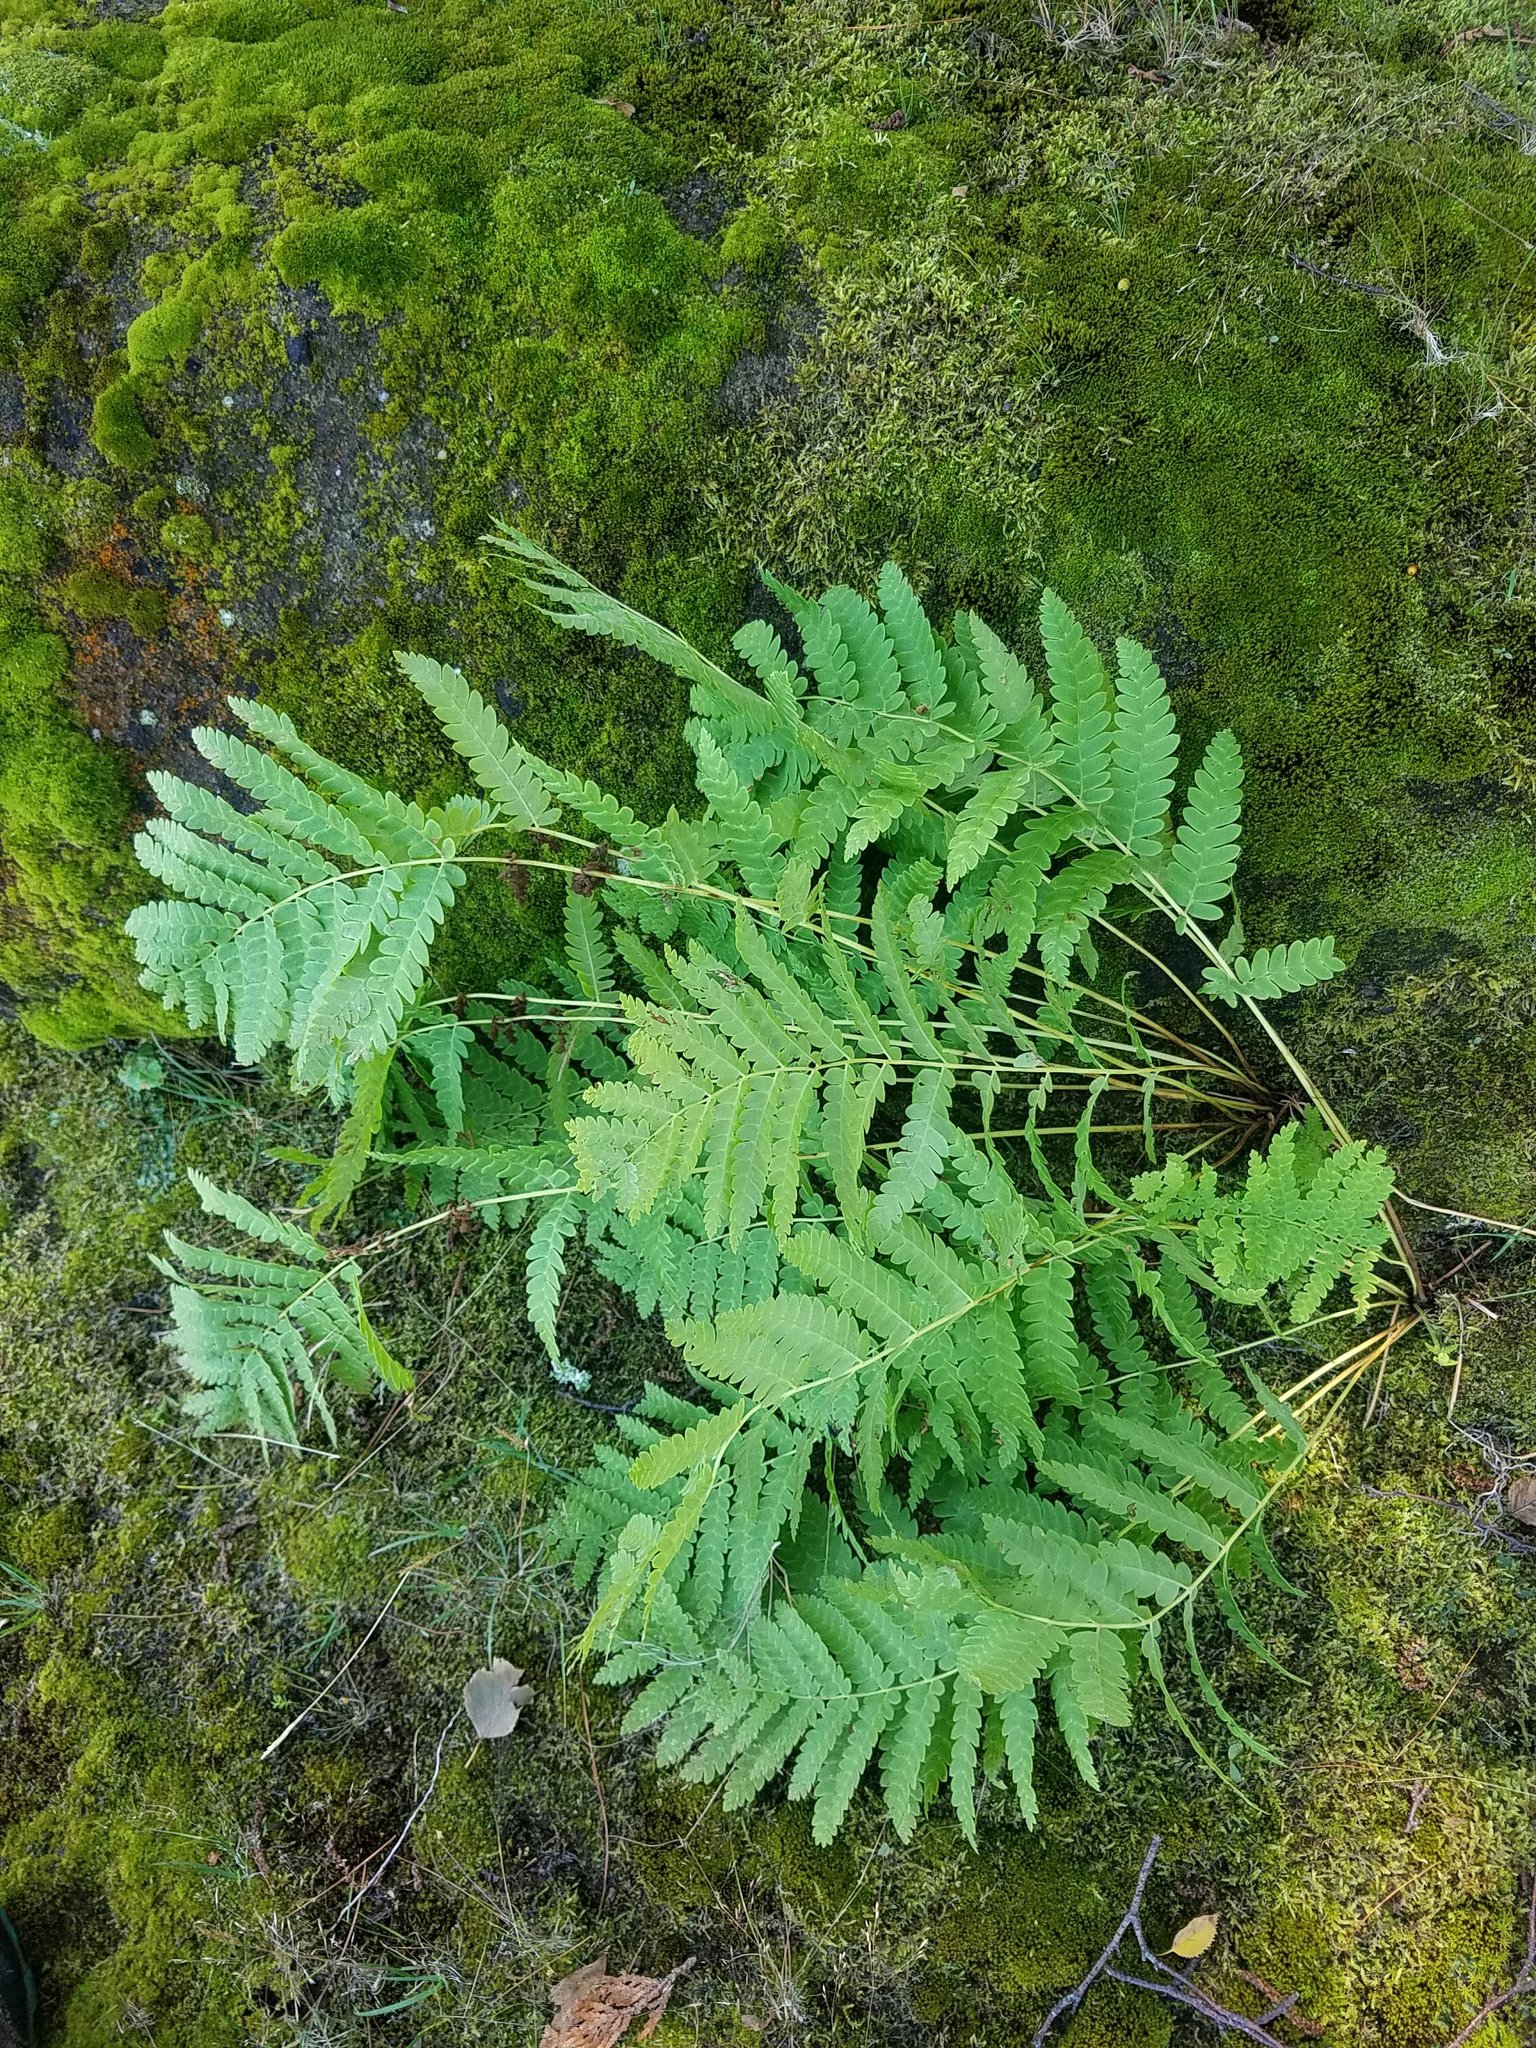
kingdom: Plantae
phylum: Tracheophyta
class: Polypodiopsida
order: Osmundales
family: Osmundaceae
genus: Claytosmunda
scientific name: Claytosmunda claytoniana
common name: Clayton's fern
